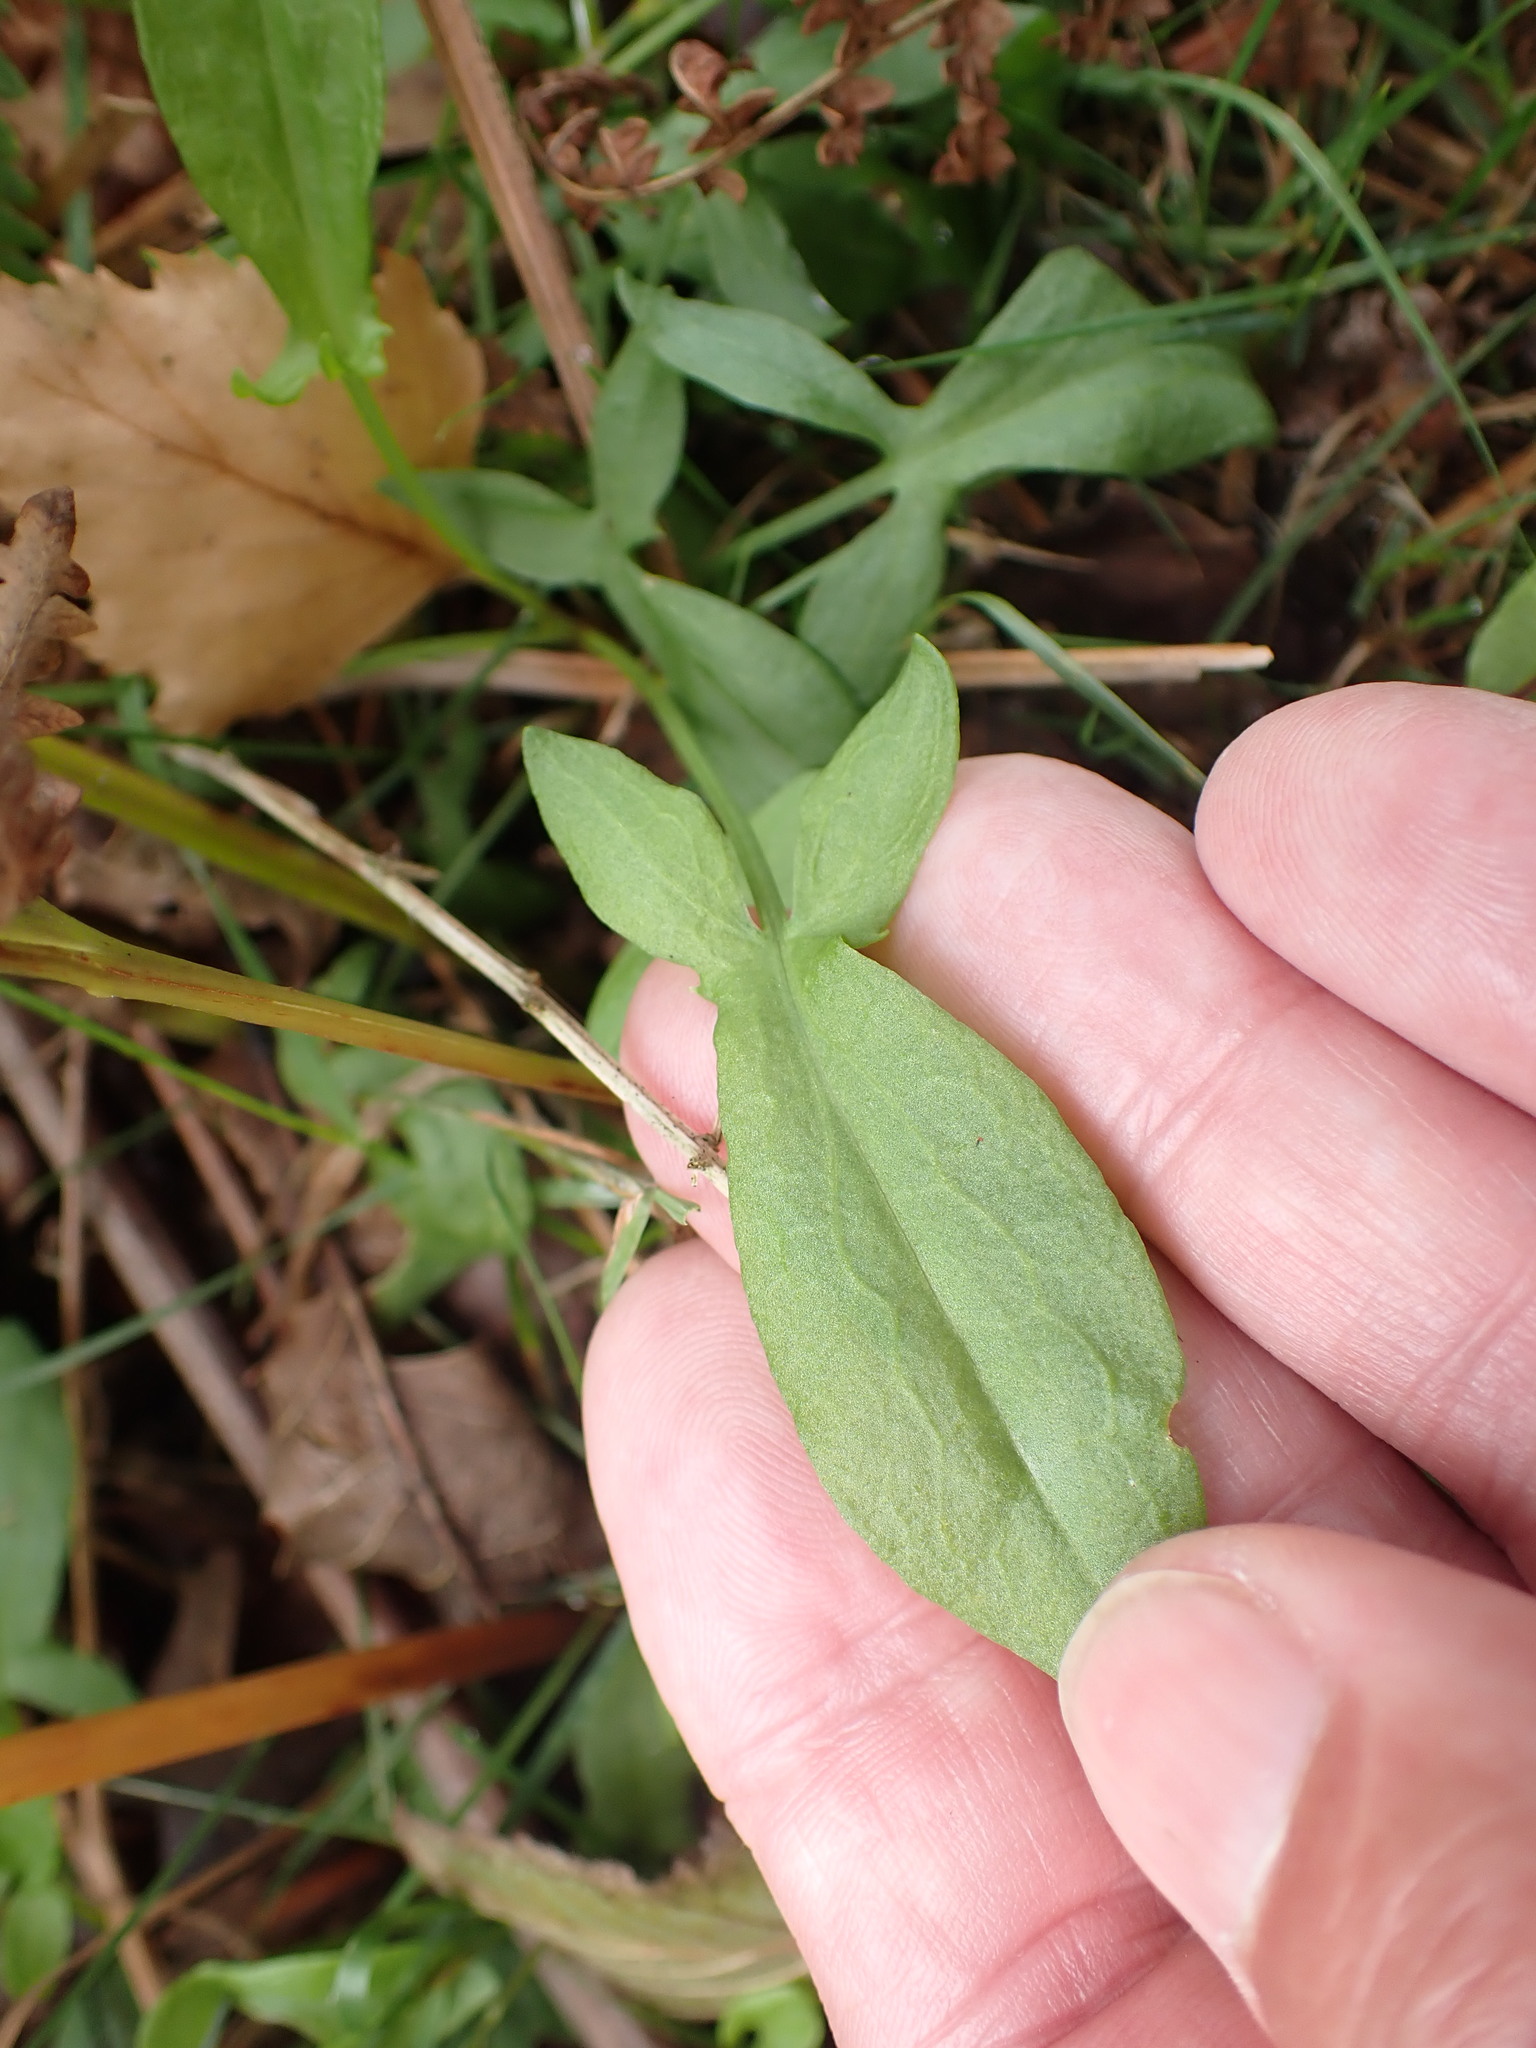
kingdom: Plantae
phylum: Tracheophyta
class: Magnoliopsida
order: Caryophyllales
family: Polygonaceae
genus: Rumex
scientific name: Rumex acetosella
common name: Common sheep sorrel
